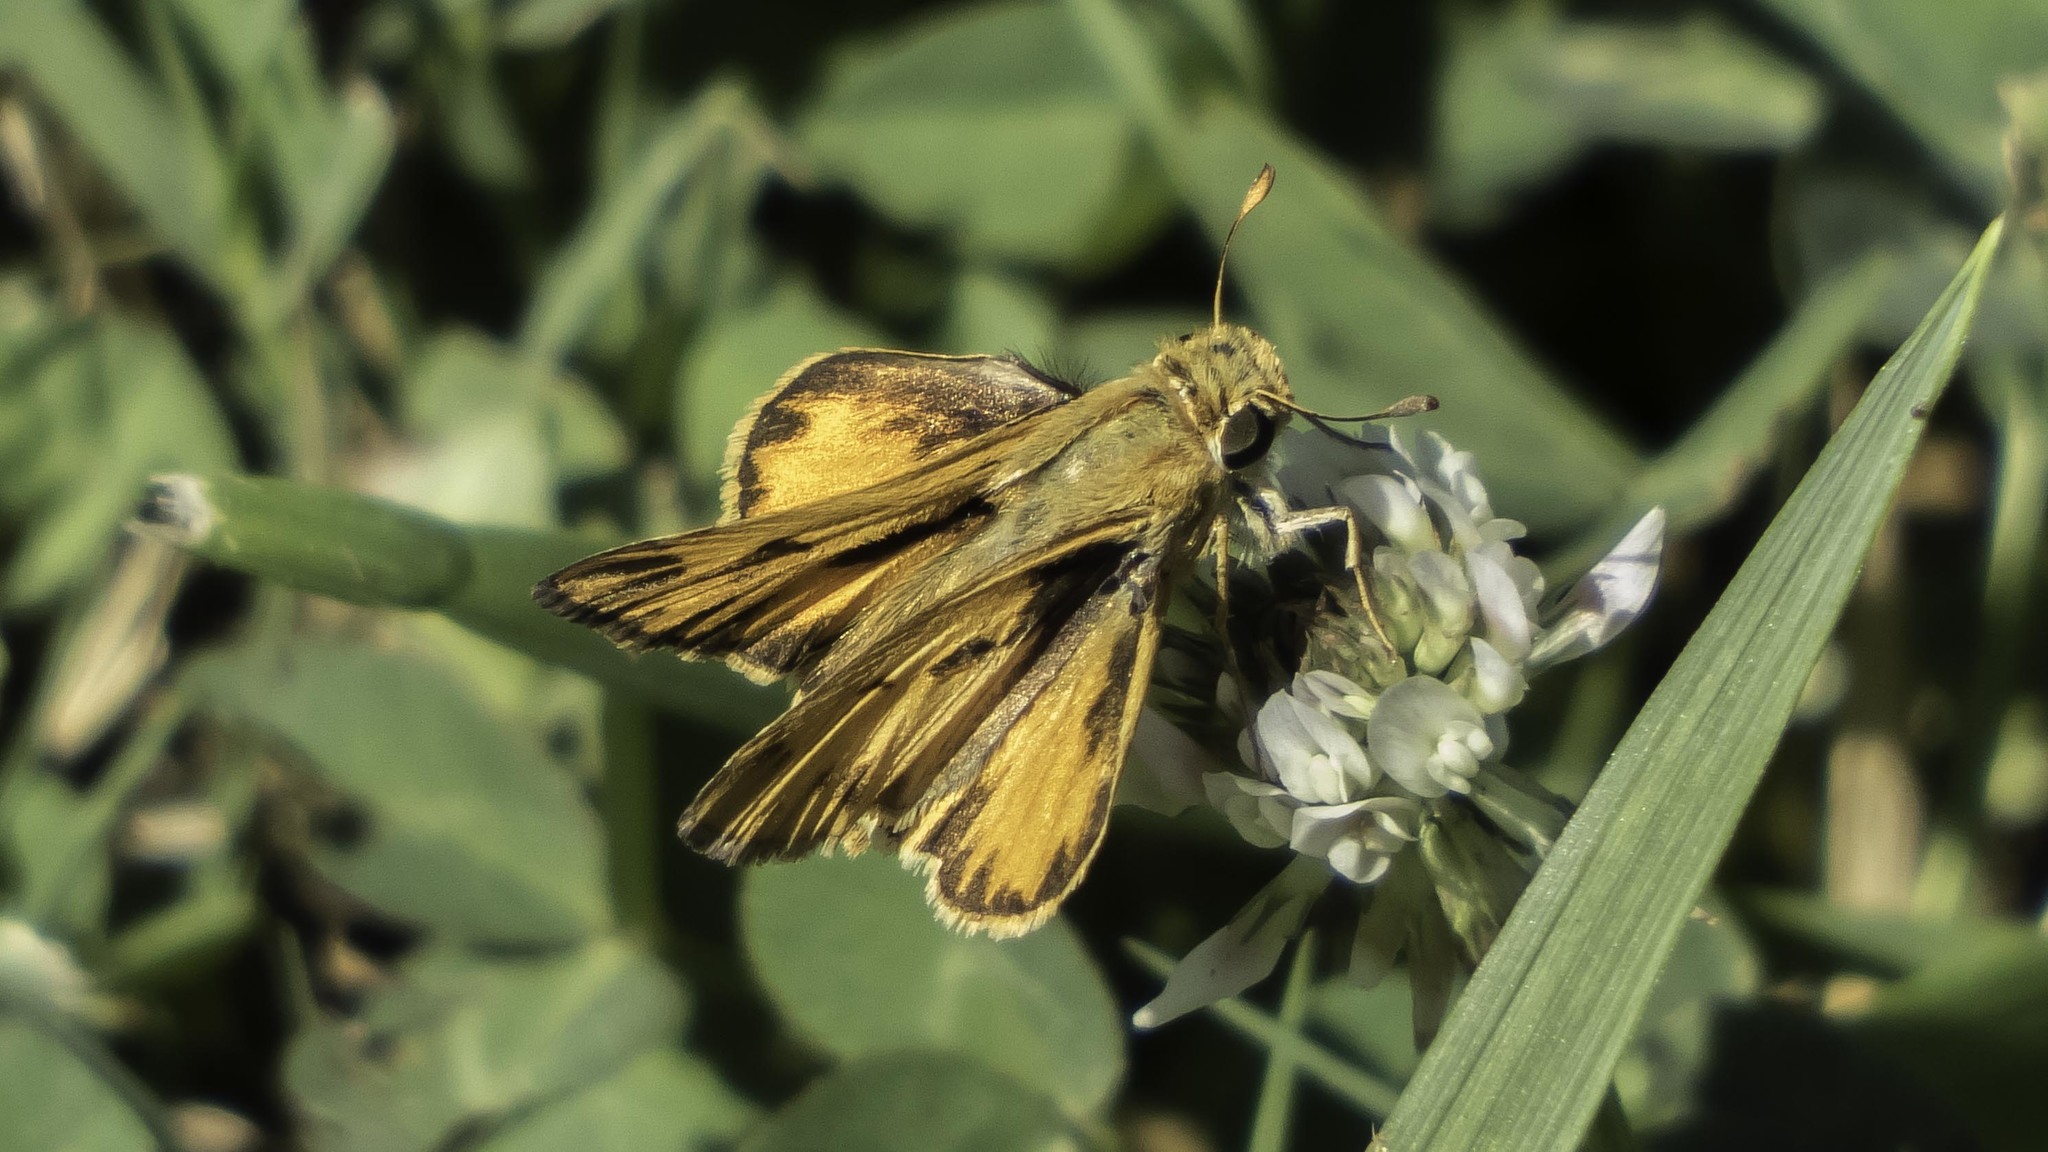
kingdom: Animalia
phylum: Arthropoda
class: Insecta
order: Lepidoptera
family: Hesperiidae
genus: Hylephila
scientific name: Hylephila phyleus
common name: Fiery skipper
